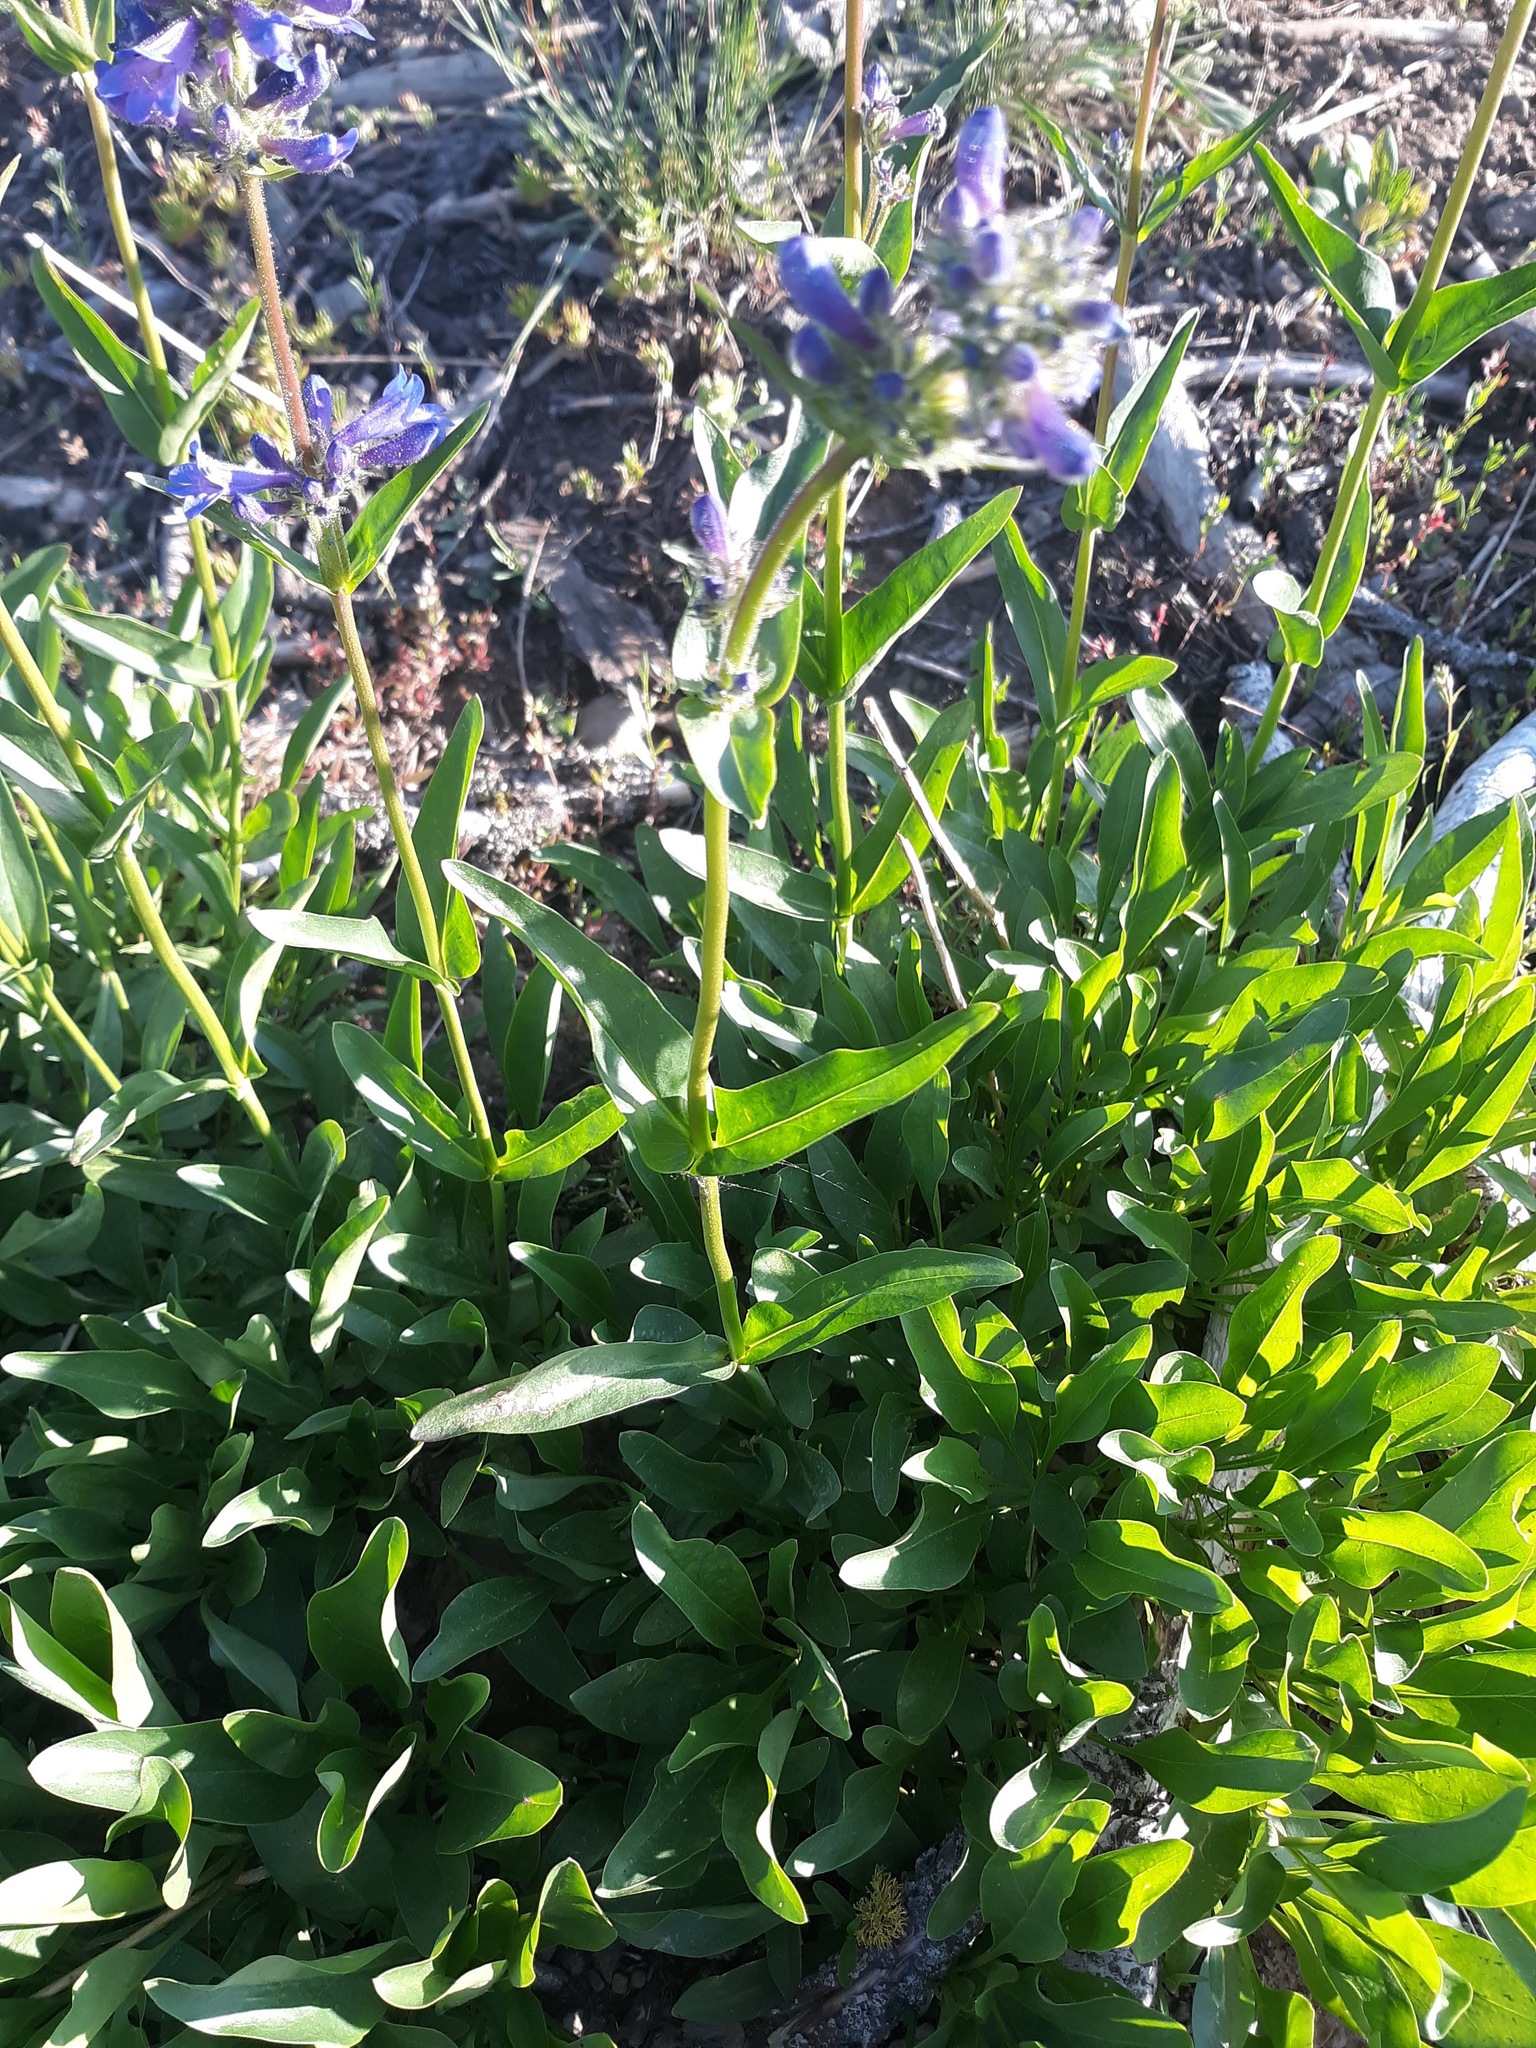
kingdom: Plantae
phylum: Tracheophyta
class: Magnoliopsida
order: Lamiales
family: Plantaginaceae
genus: Penstemon
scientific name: Penstemon attenuatus
